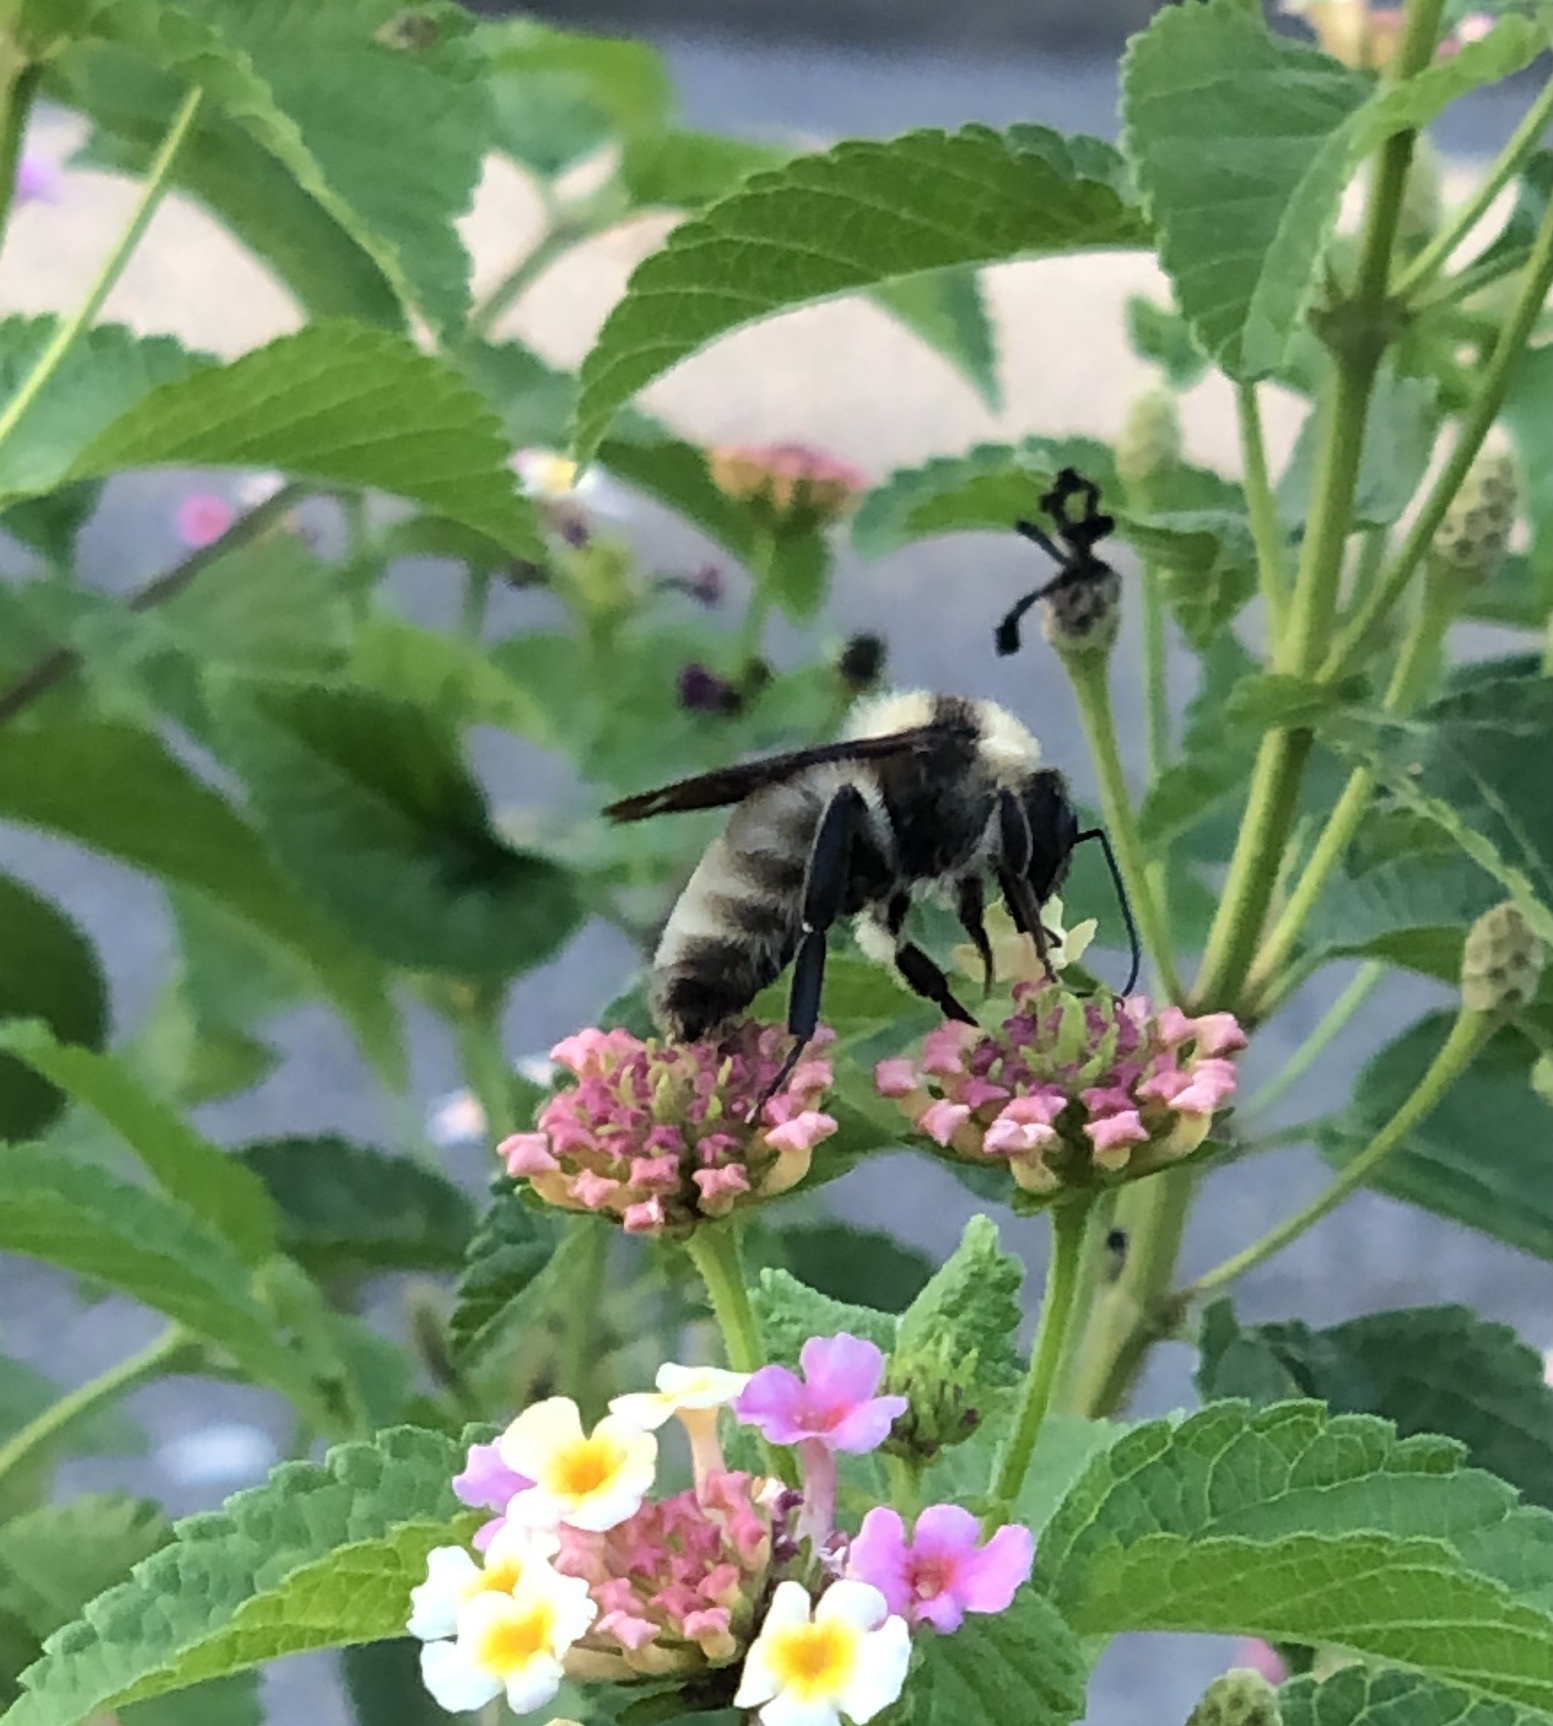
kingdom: Animalia
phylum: Arthropoda
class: Insecta
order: Hymenoptera
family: Apidae
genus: Bombus
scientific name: Bombus pensylvanicus
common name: Bumble bee
